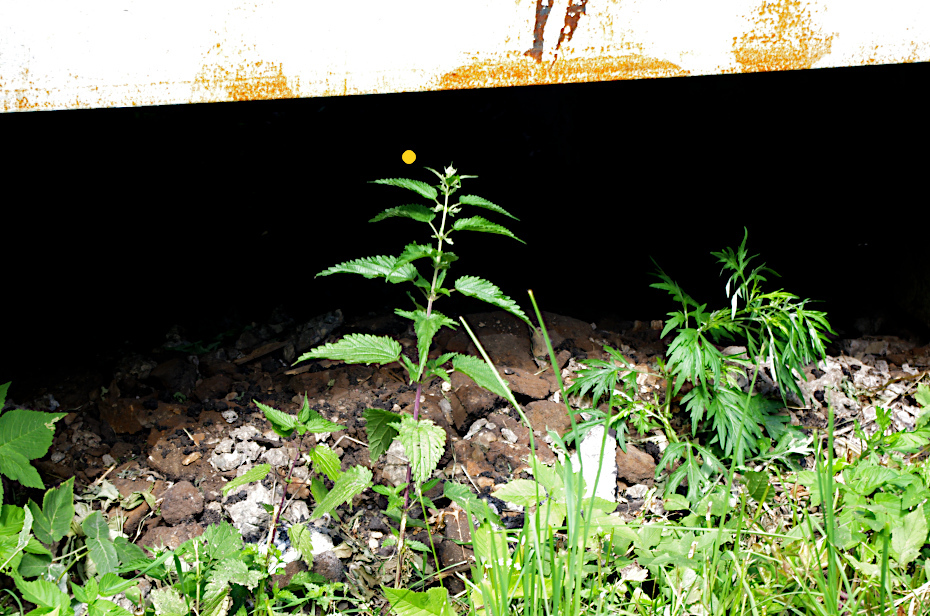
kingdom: Plantae
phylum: Tracheophyta
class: Magnoliopsida
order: Rosales
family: Urticaceae
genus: Urtica
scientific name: Urtica dioica
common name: Common nettle
